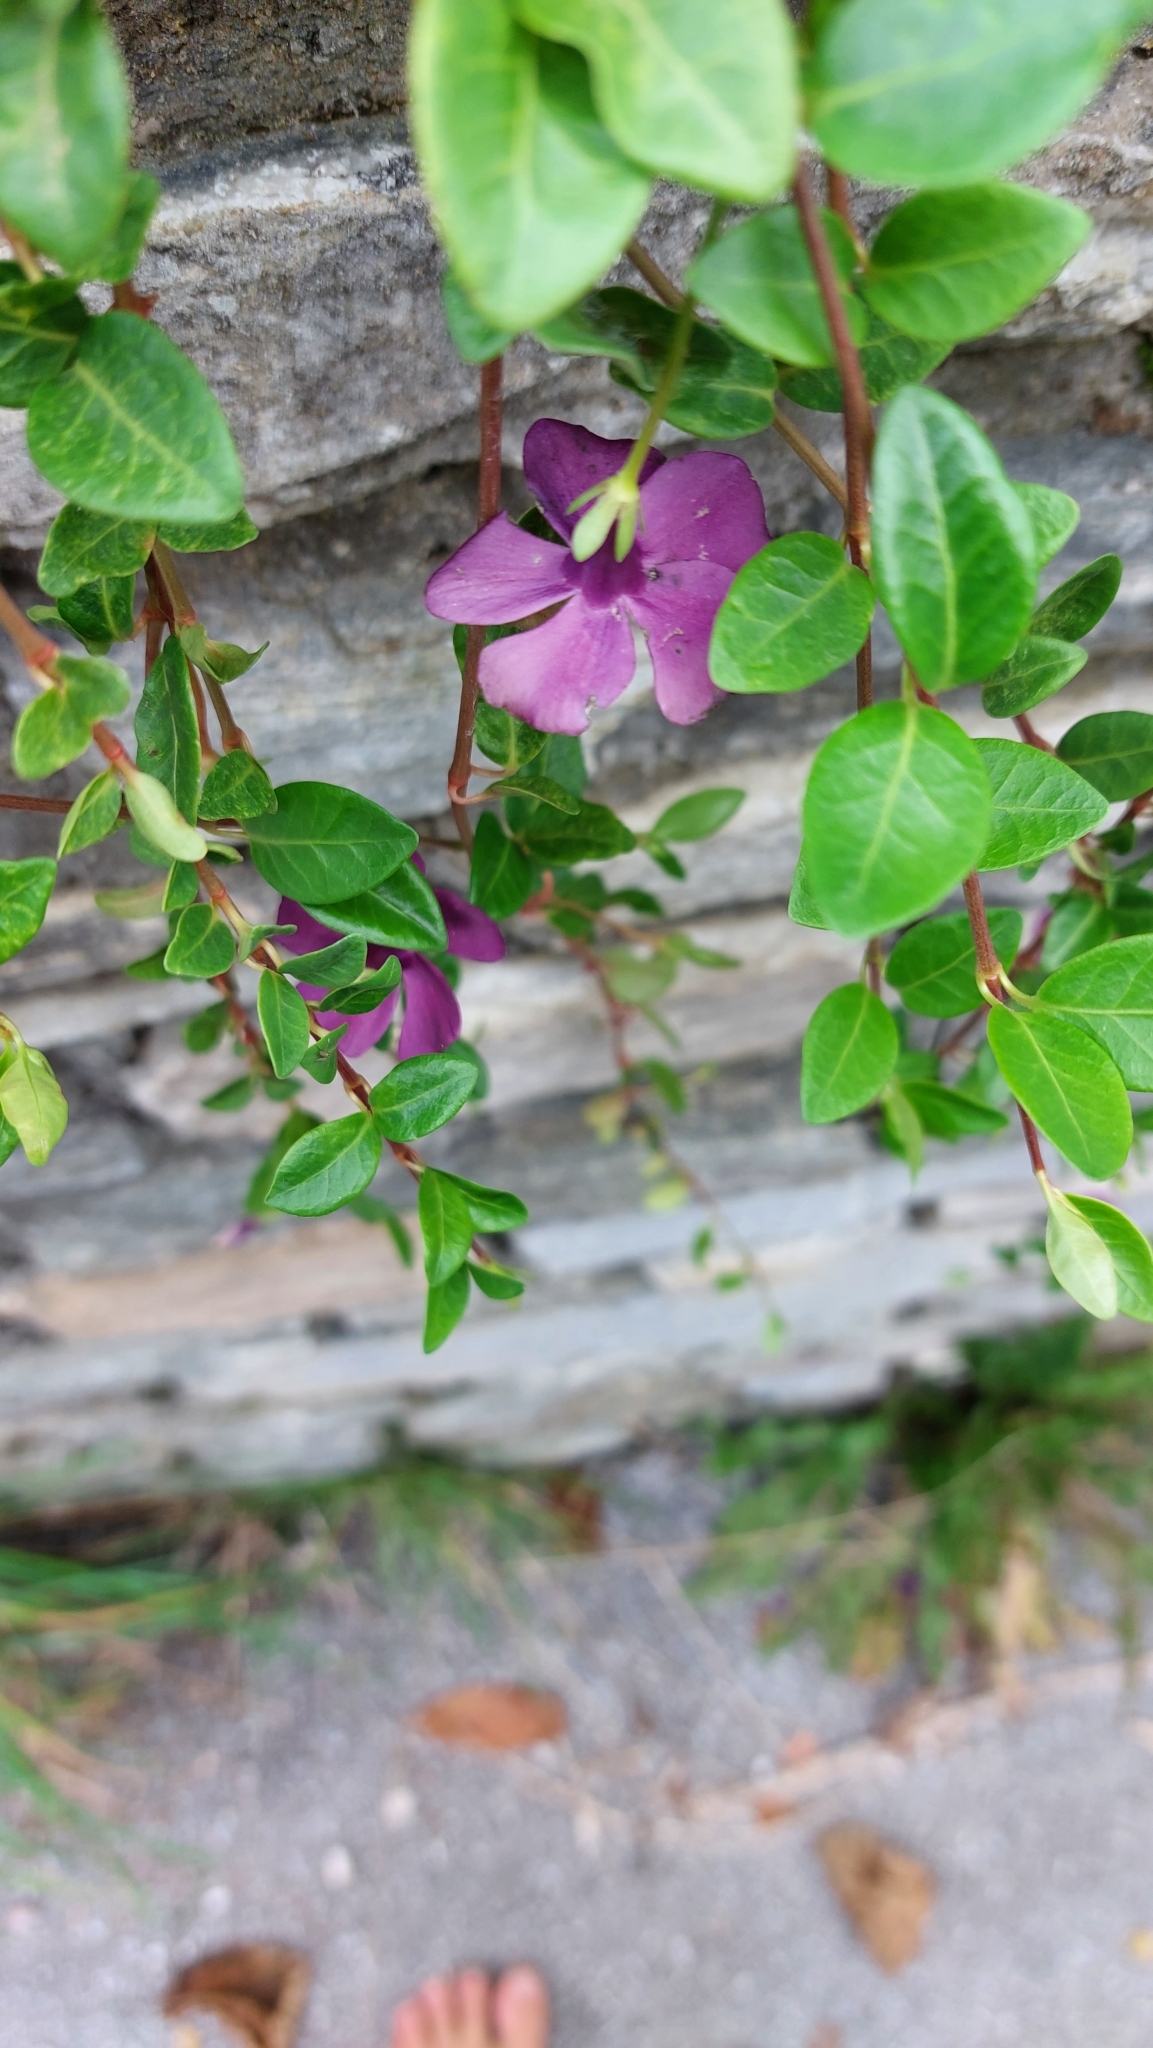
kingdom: Plantae
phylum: Tracheophyta
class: Magnoliopsida
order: Gentianales
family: Apocynaceae
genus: Vinca
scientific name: Vinca minor
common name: Lesser periwinkle
